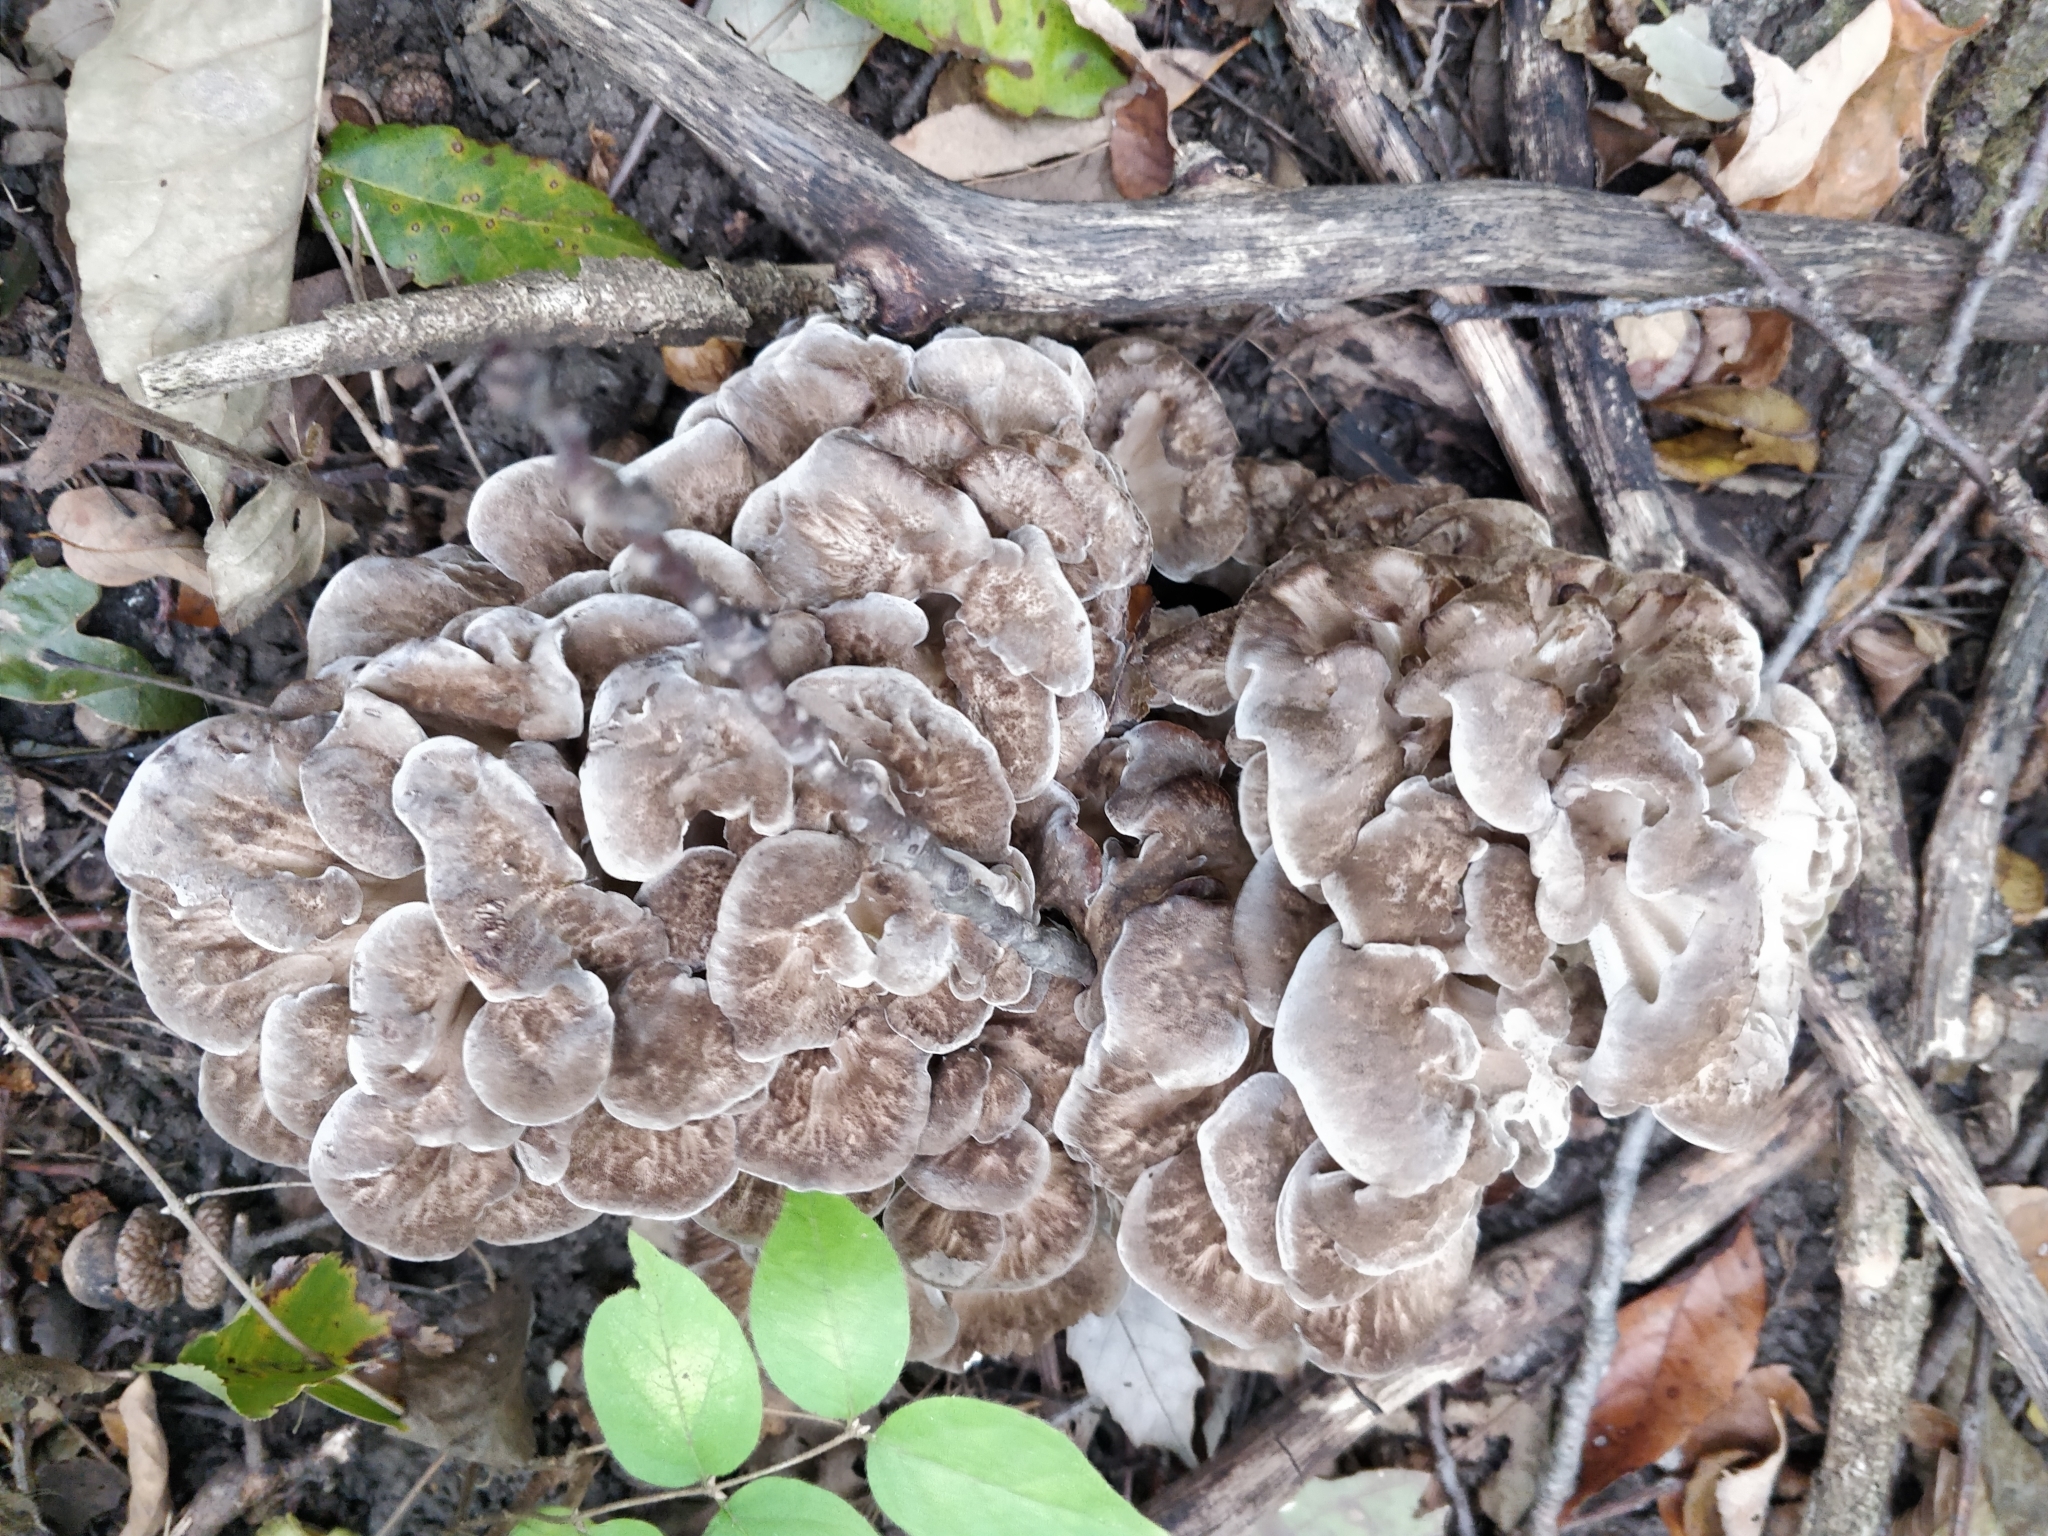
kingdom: Fungi
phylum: Basidiomycota
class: Agaricomycetes
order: Polyporales
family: Grifolaceae
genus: Grifola
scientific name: Grifola frondosa
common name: Hen of the woods
